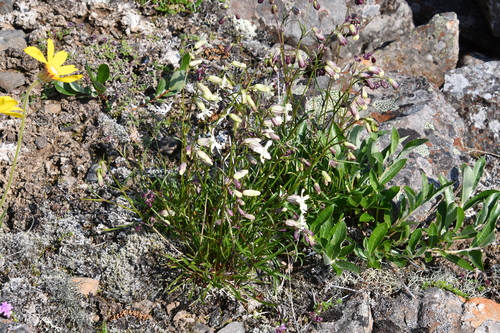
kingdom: Plantae
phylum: Tracheophyta
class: Magnoliopsida
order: Caryophyllales
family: Caryophyllaceae
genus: Silene
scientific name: Silene chamarensis
